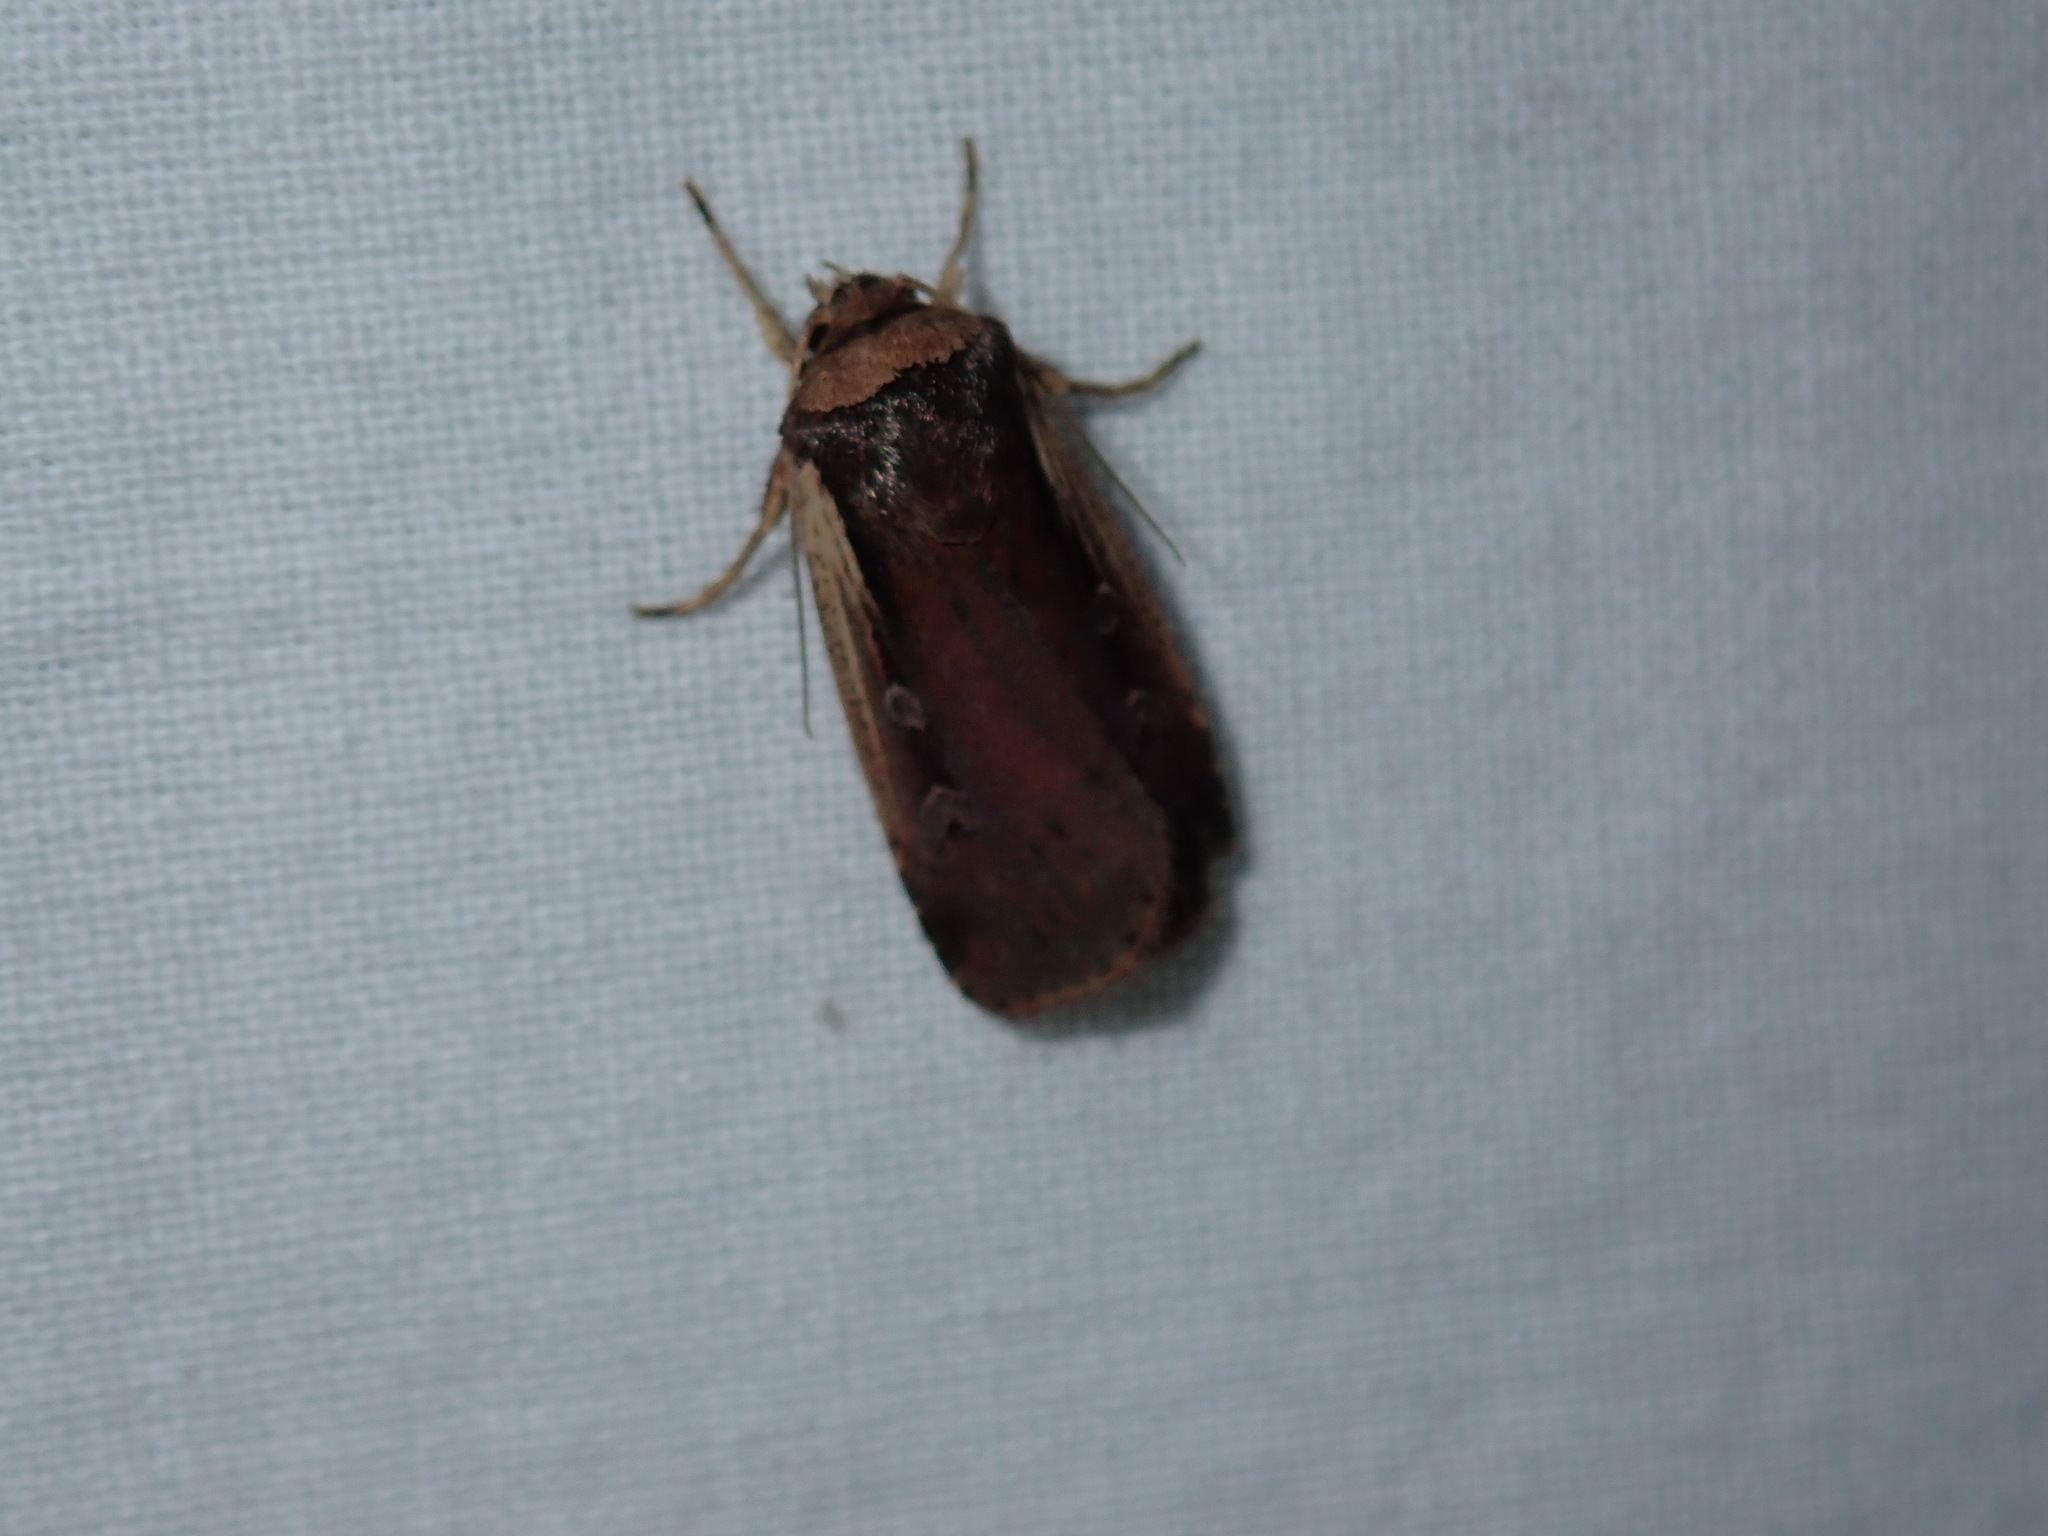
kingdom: Animalia
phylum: Arthropoda
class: Insecta
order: Lepidoptera
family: Noctuidae
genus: Ochropleura
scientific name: Ochropleura implecta
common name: Flame-shouldered dart
